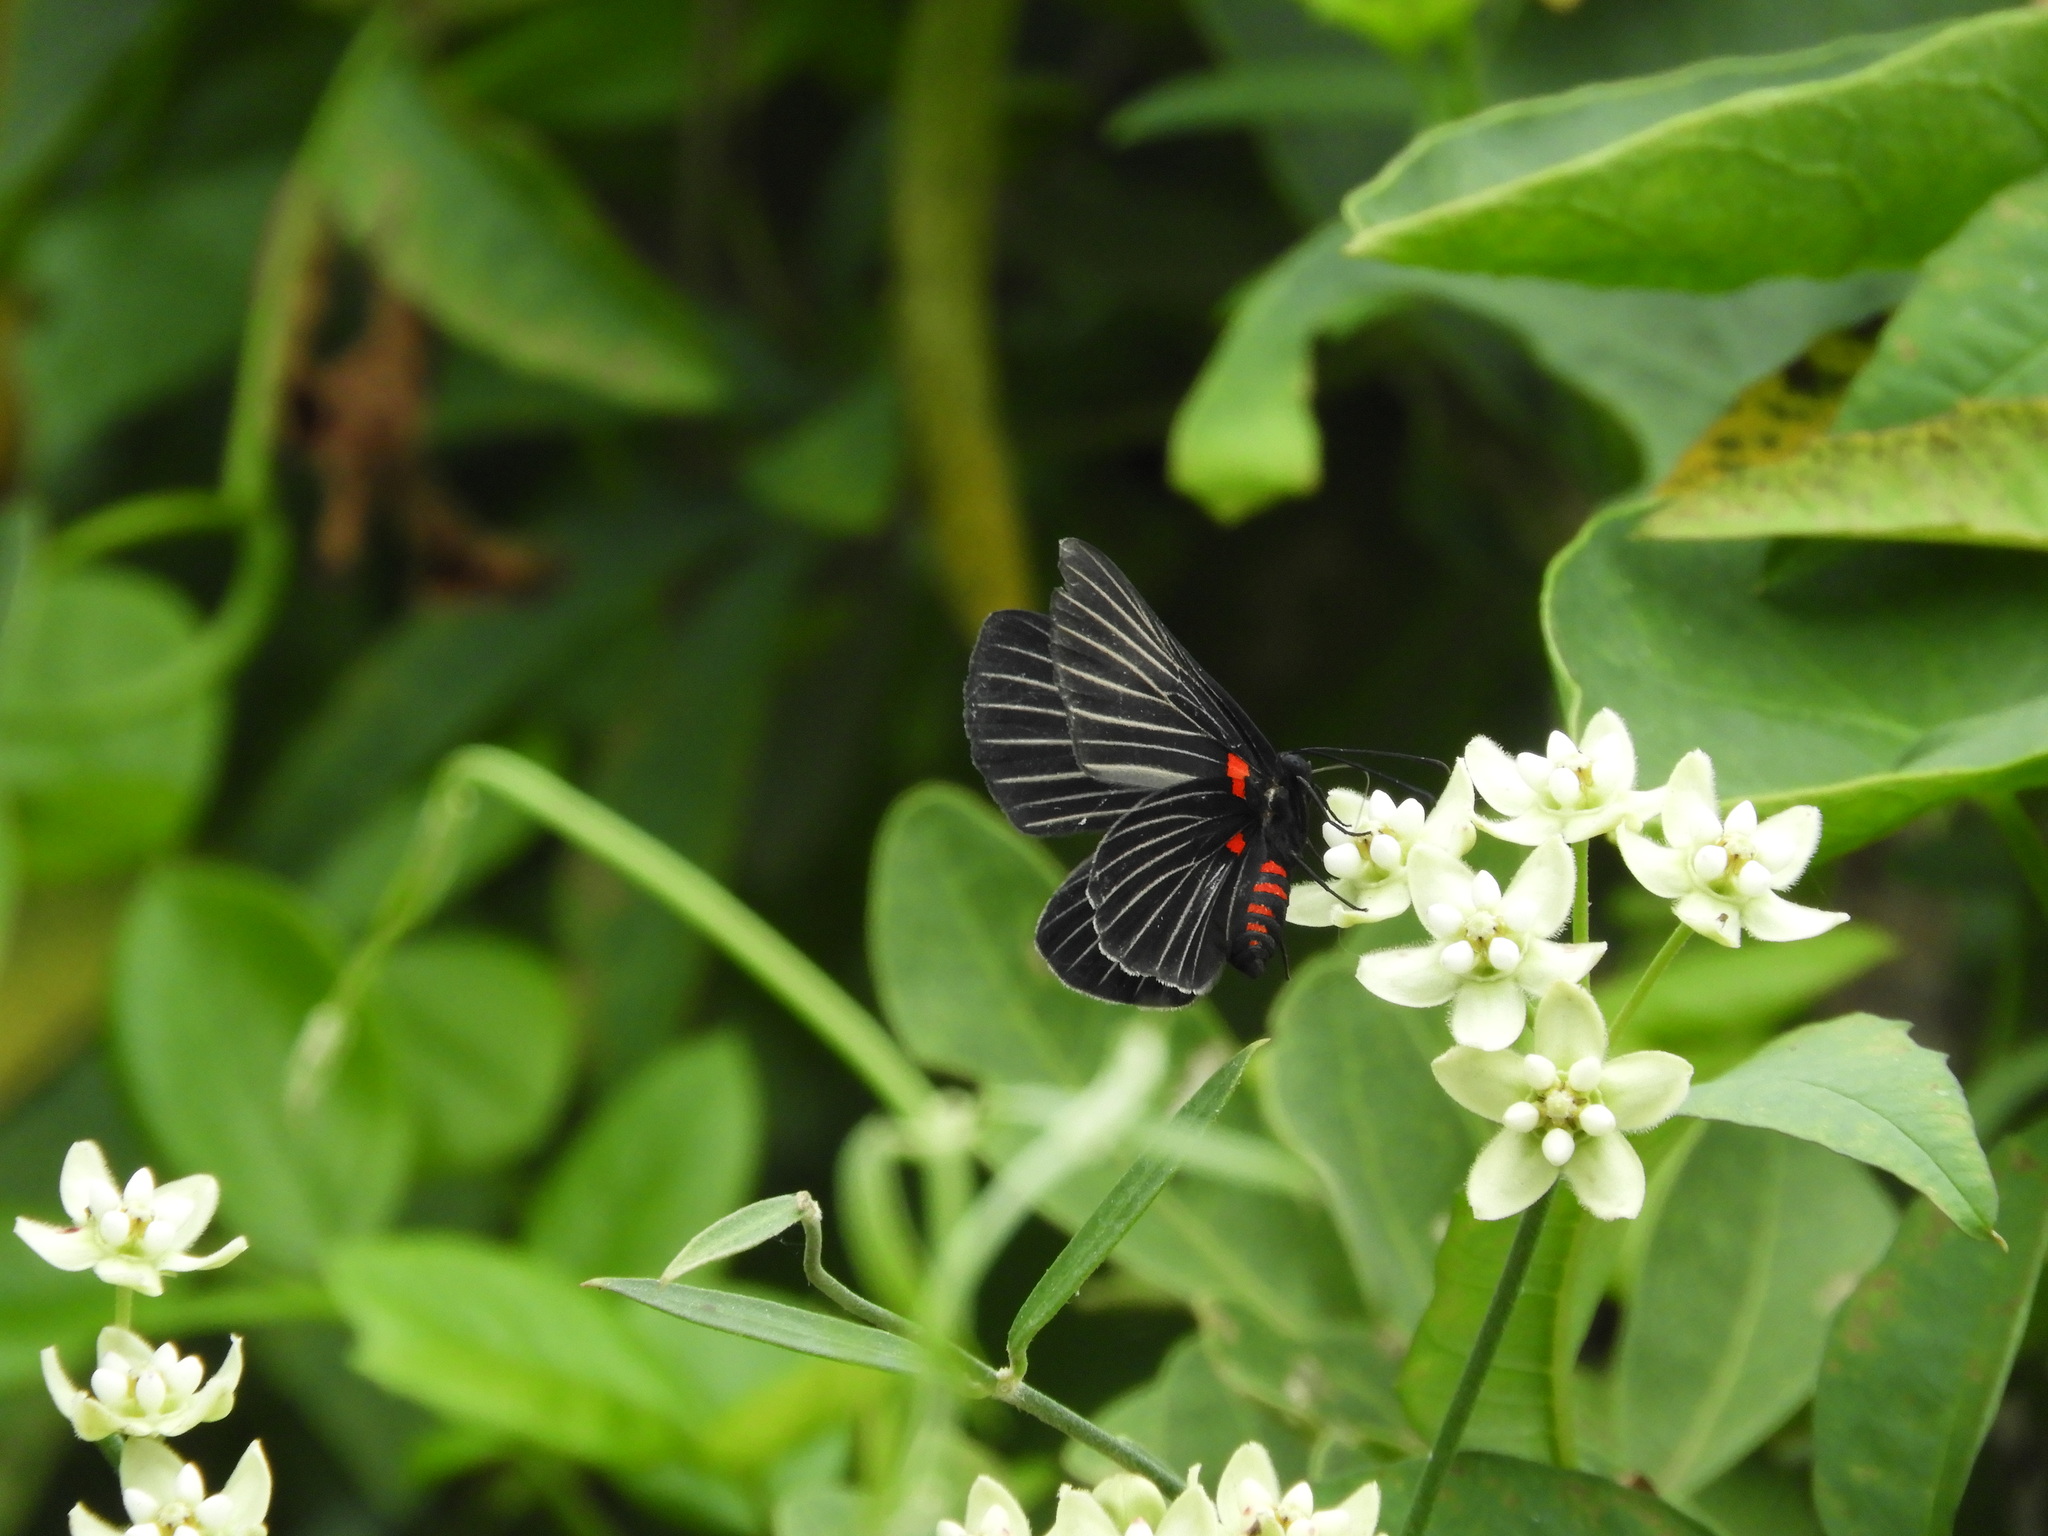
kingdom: Animalia
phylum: Arthropoda
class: Insecta
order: Lepidoptera
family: Lycaenidae
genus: Melanis
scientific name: Melanis
